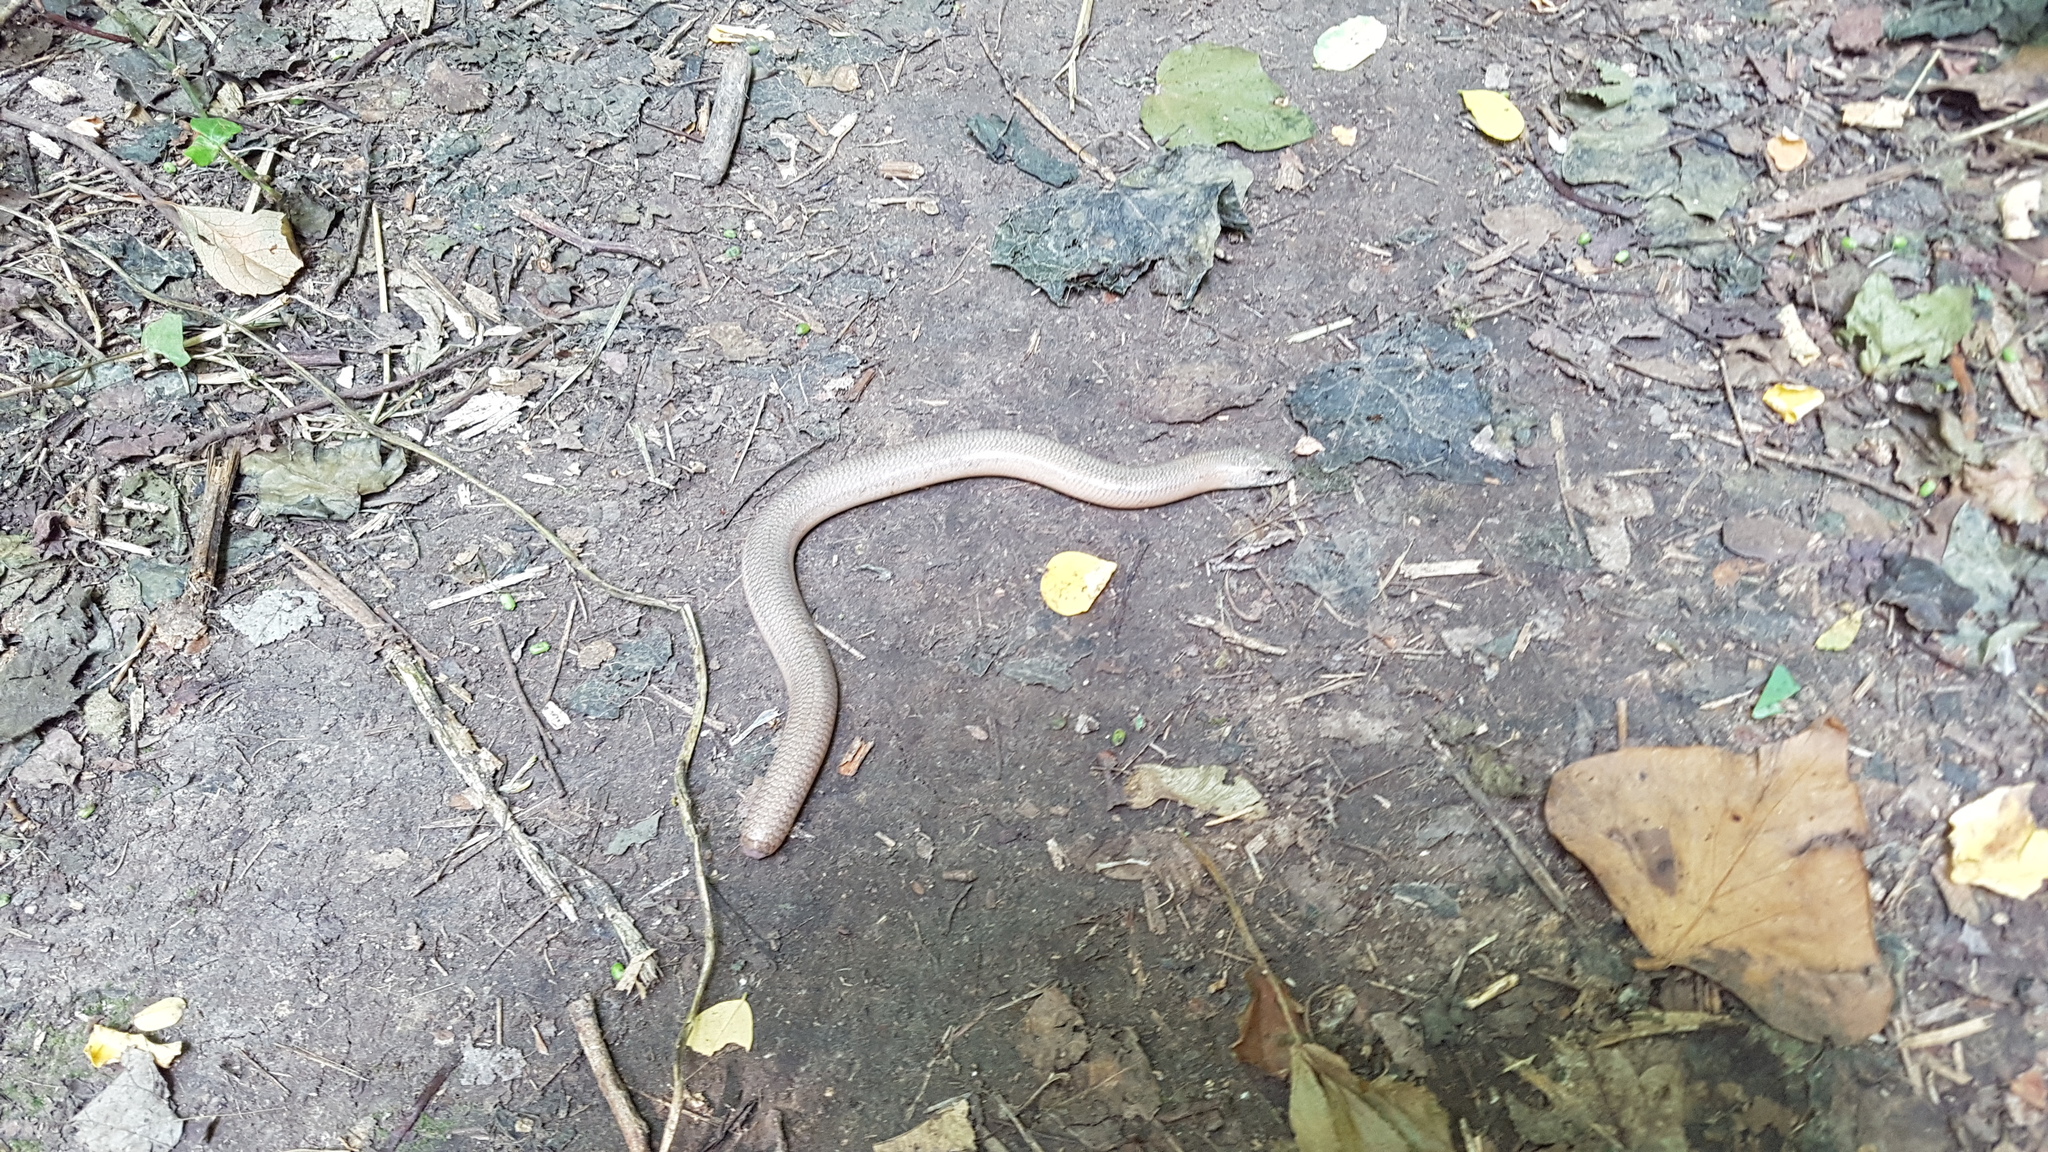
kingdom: Animalia
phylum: Chordata
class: Squamata
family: Anguidae
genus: Anguis
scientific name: Anguis veronensis
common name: Italian slow worm
